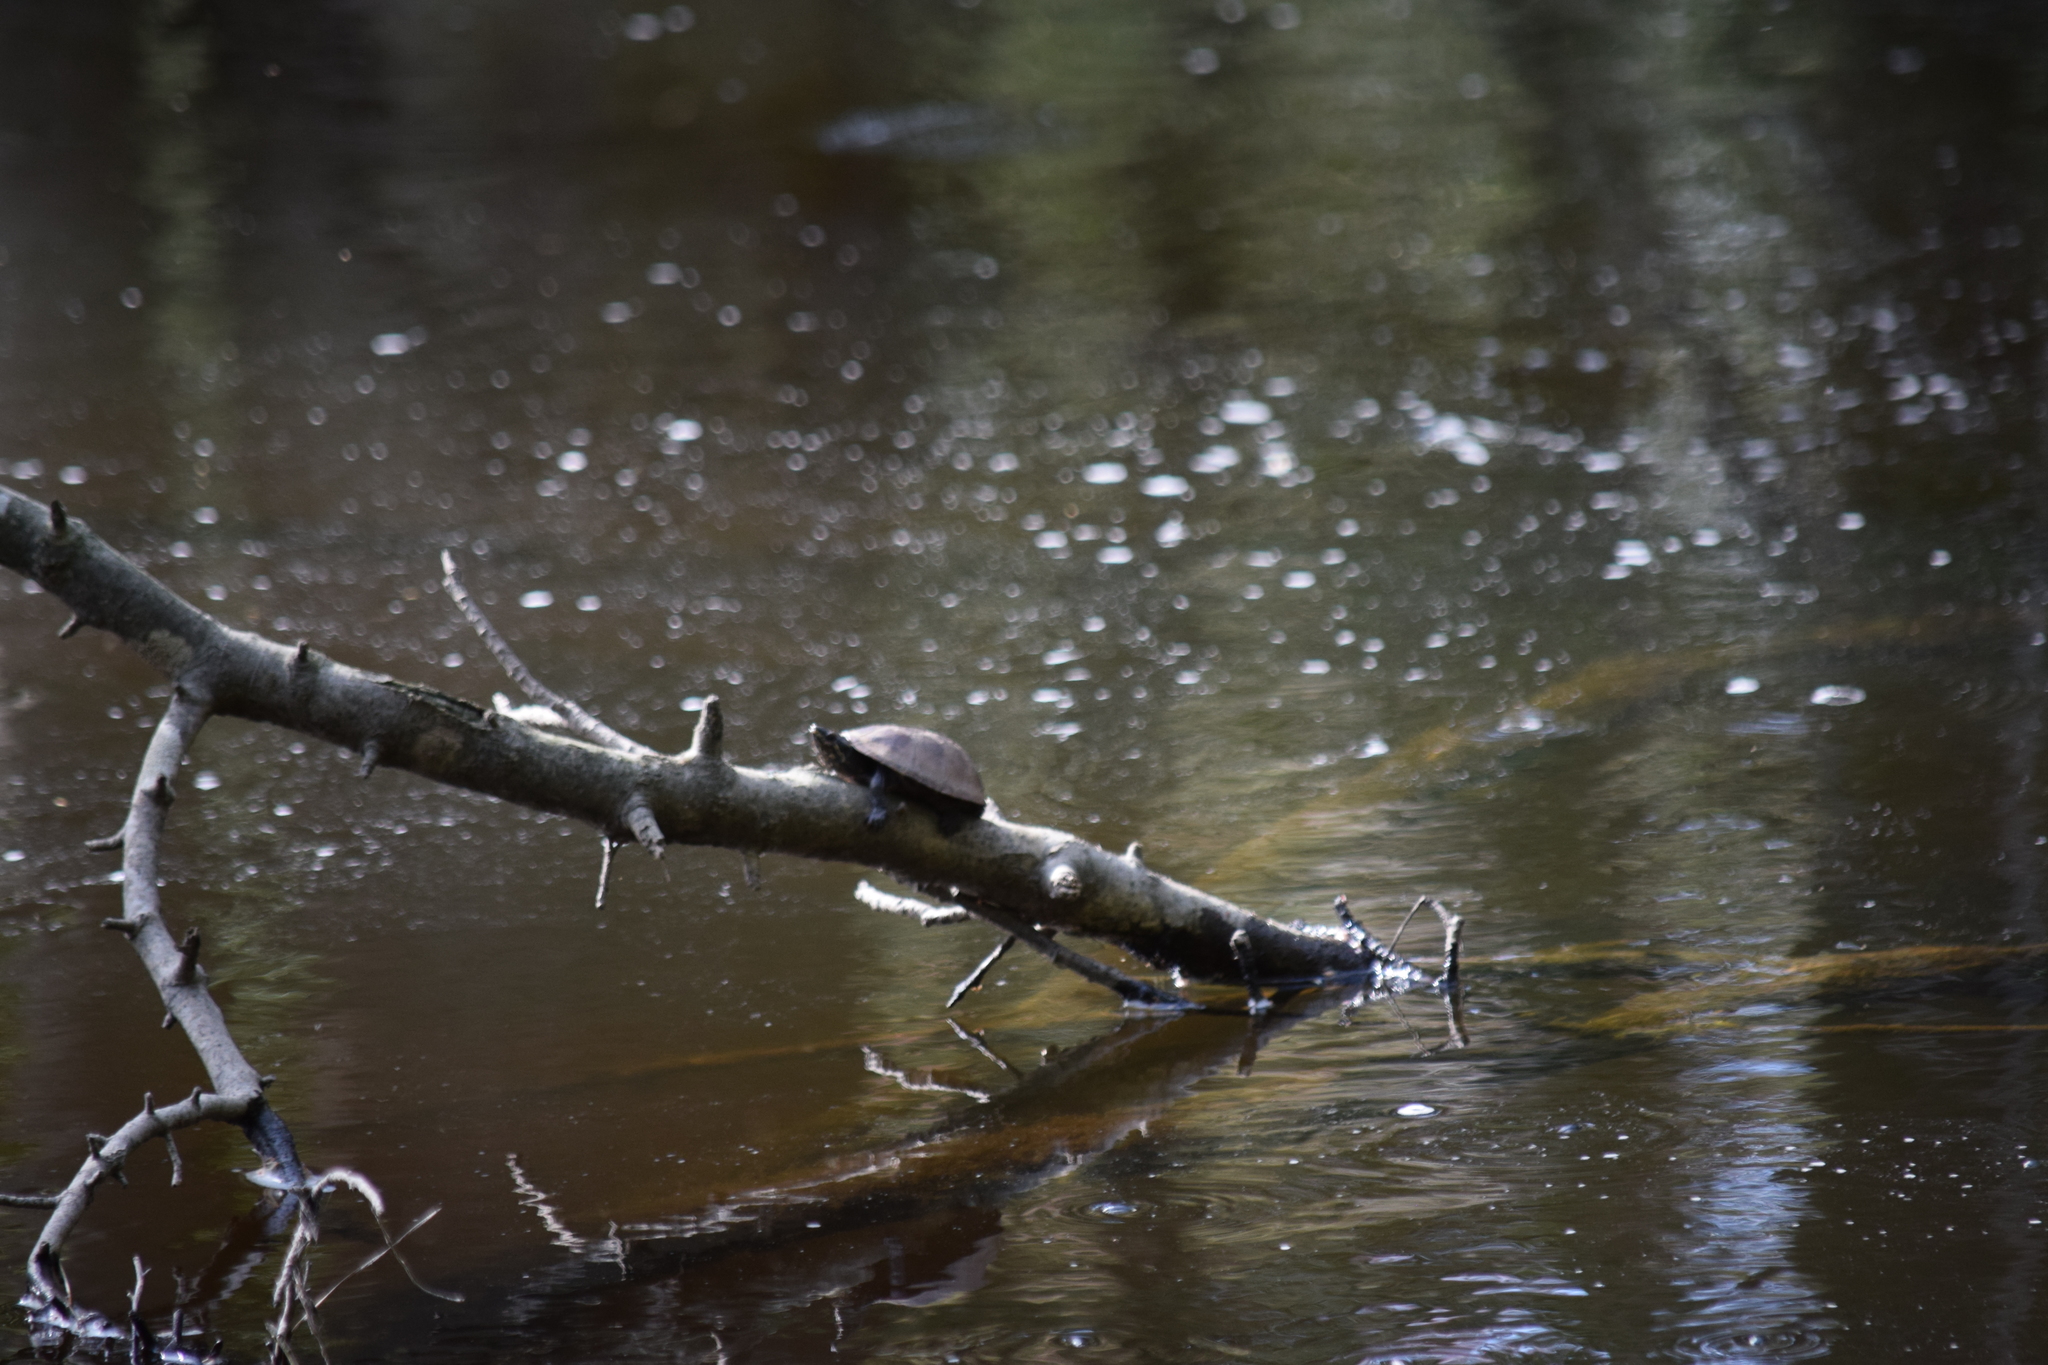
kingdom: Animalia
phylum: Chordata
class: Testudines
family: Kinosternidae
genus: Sternotherus
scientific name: Sternotherus odoratus
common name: Common musk turtle
